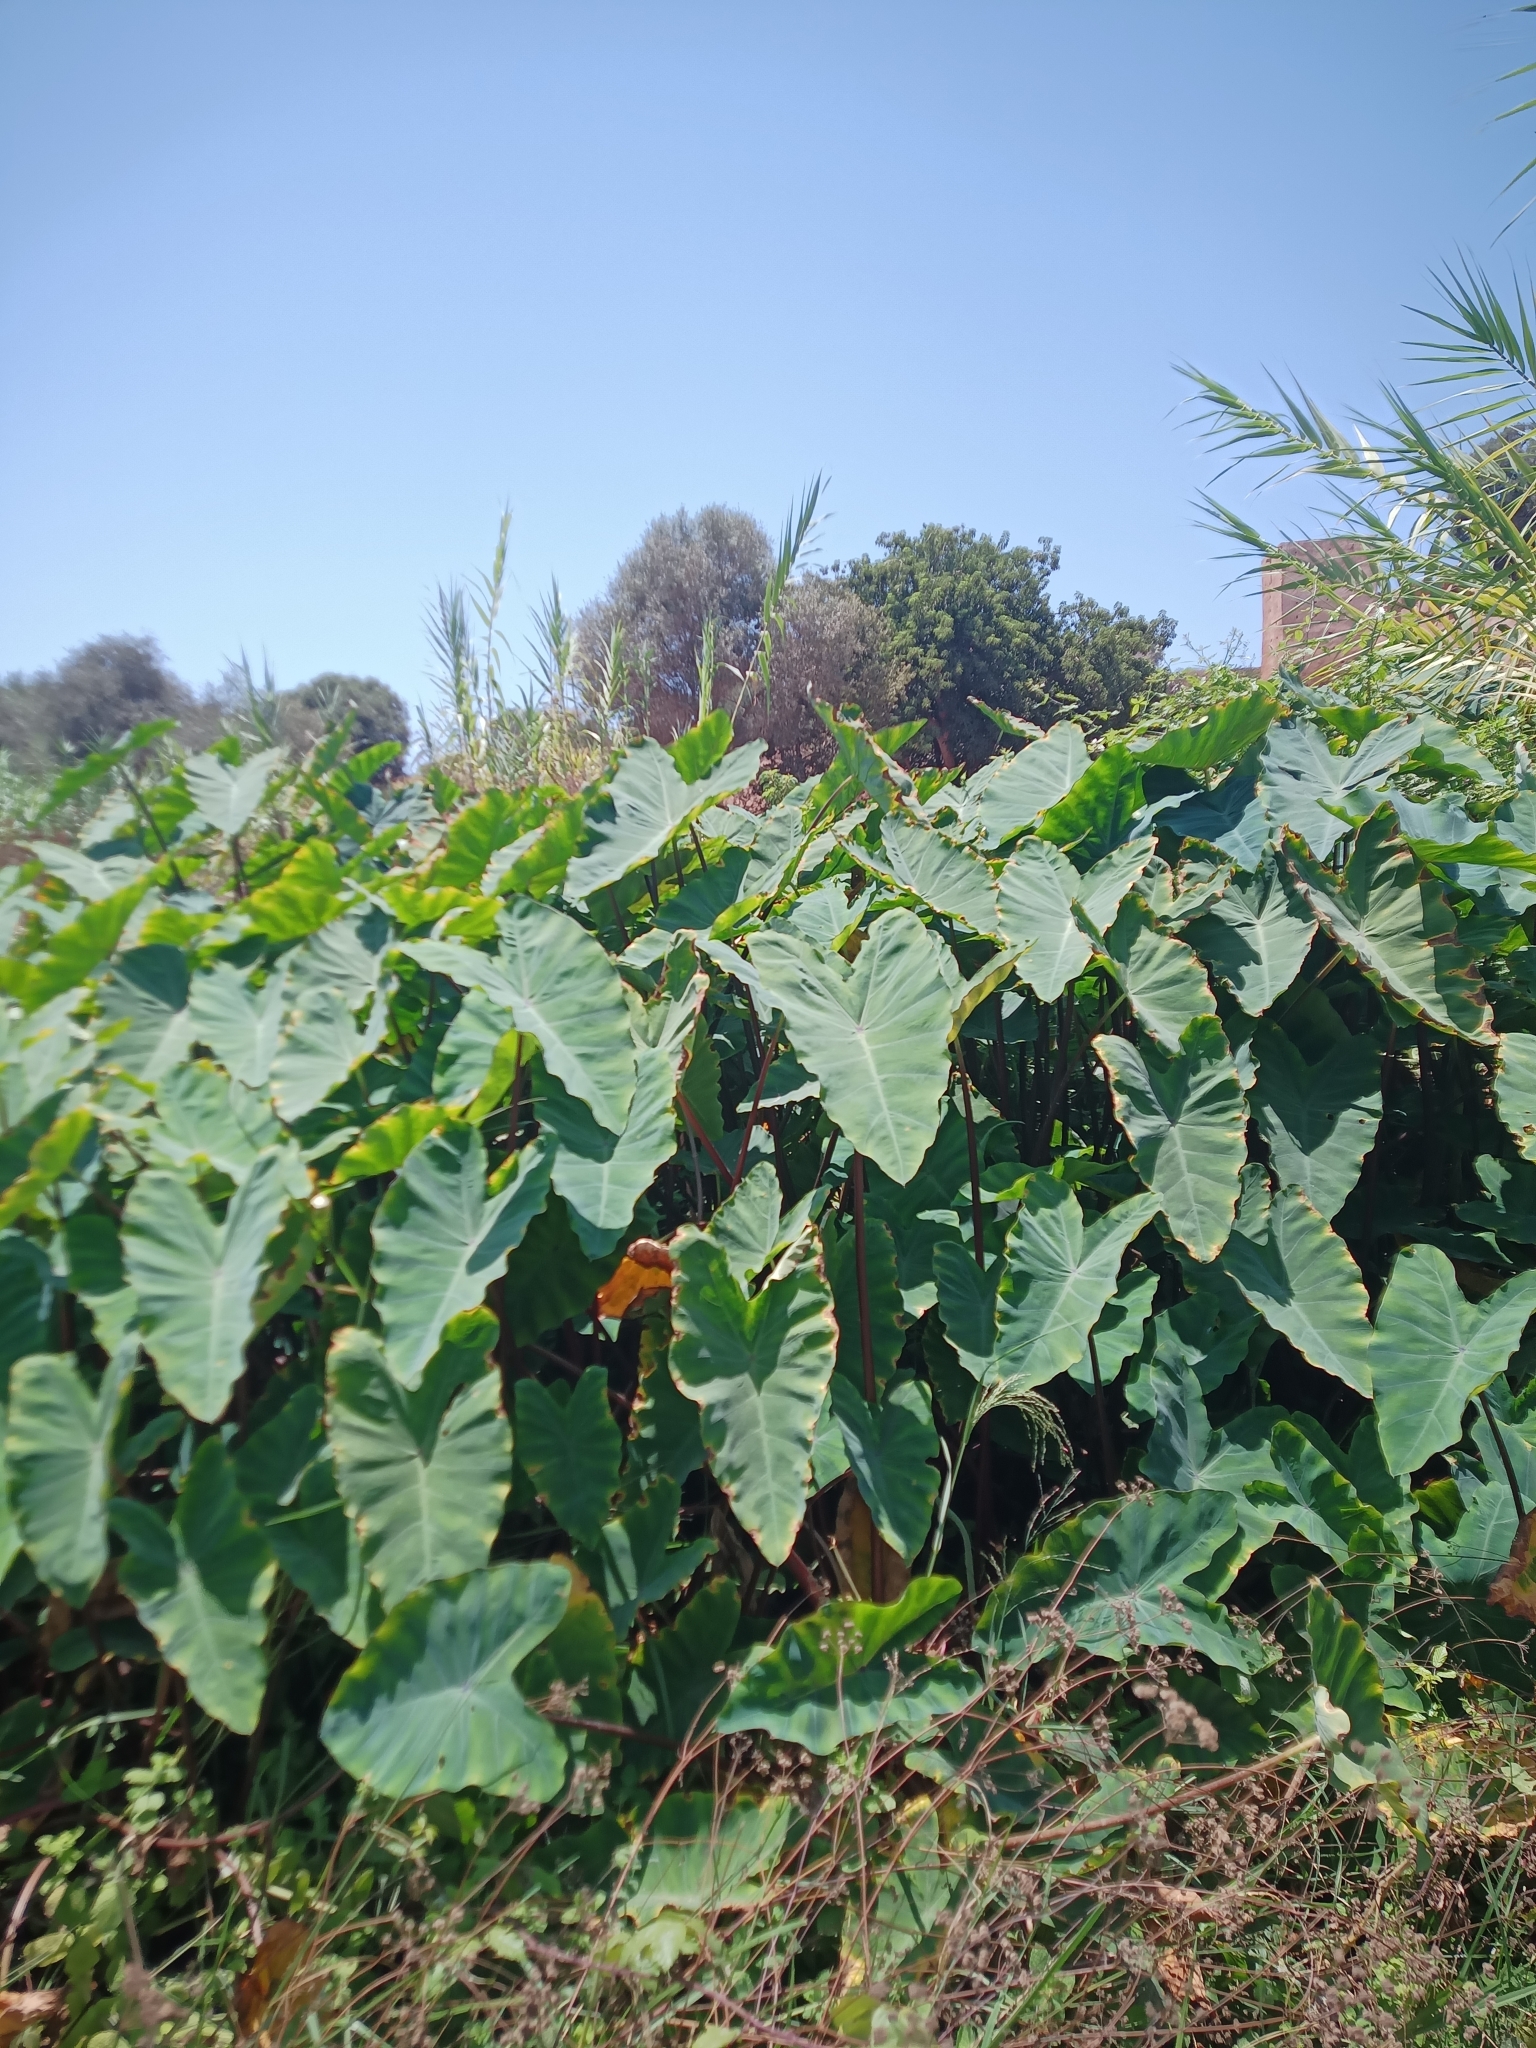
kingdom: Plantae
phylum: Tracheophyta
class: Liliopsida
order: Alismatales
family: Araceae
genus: Colocasia
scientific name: Colocasia esculenta
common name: Taro
